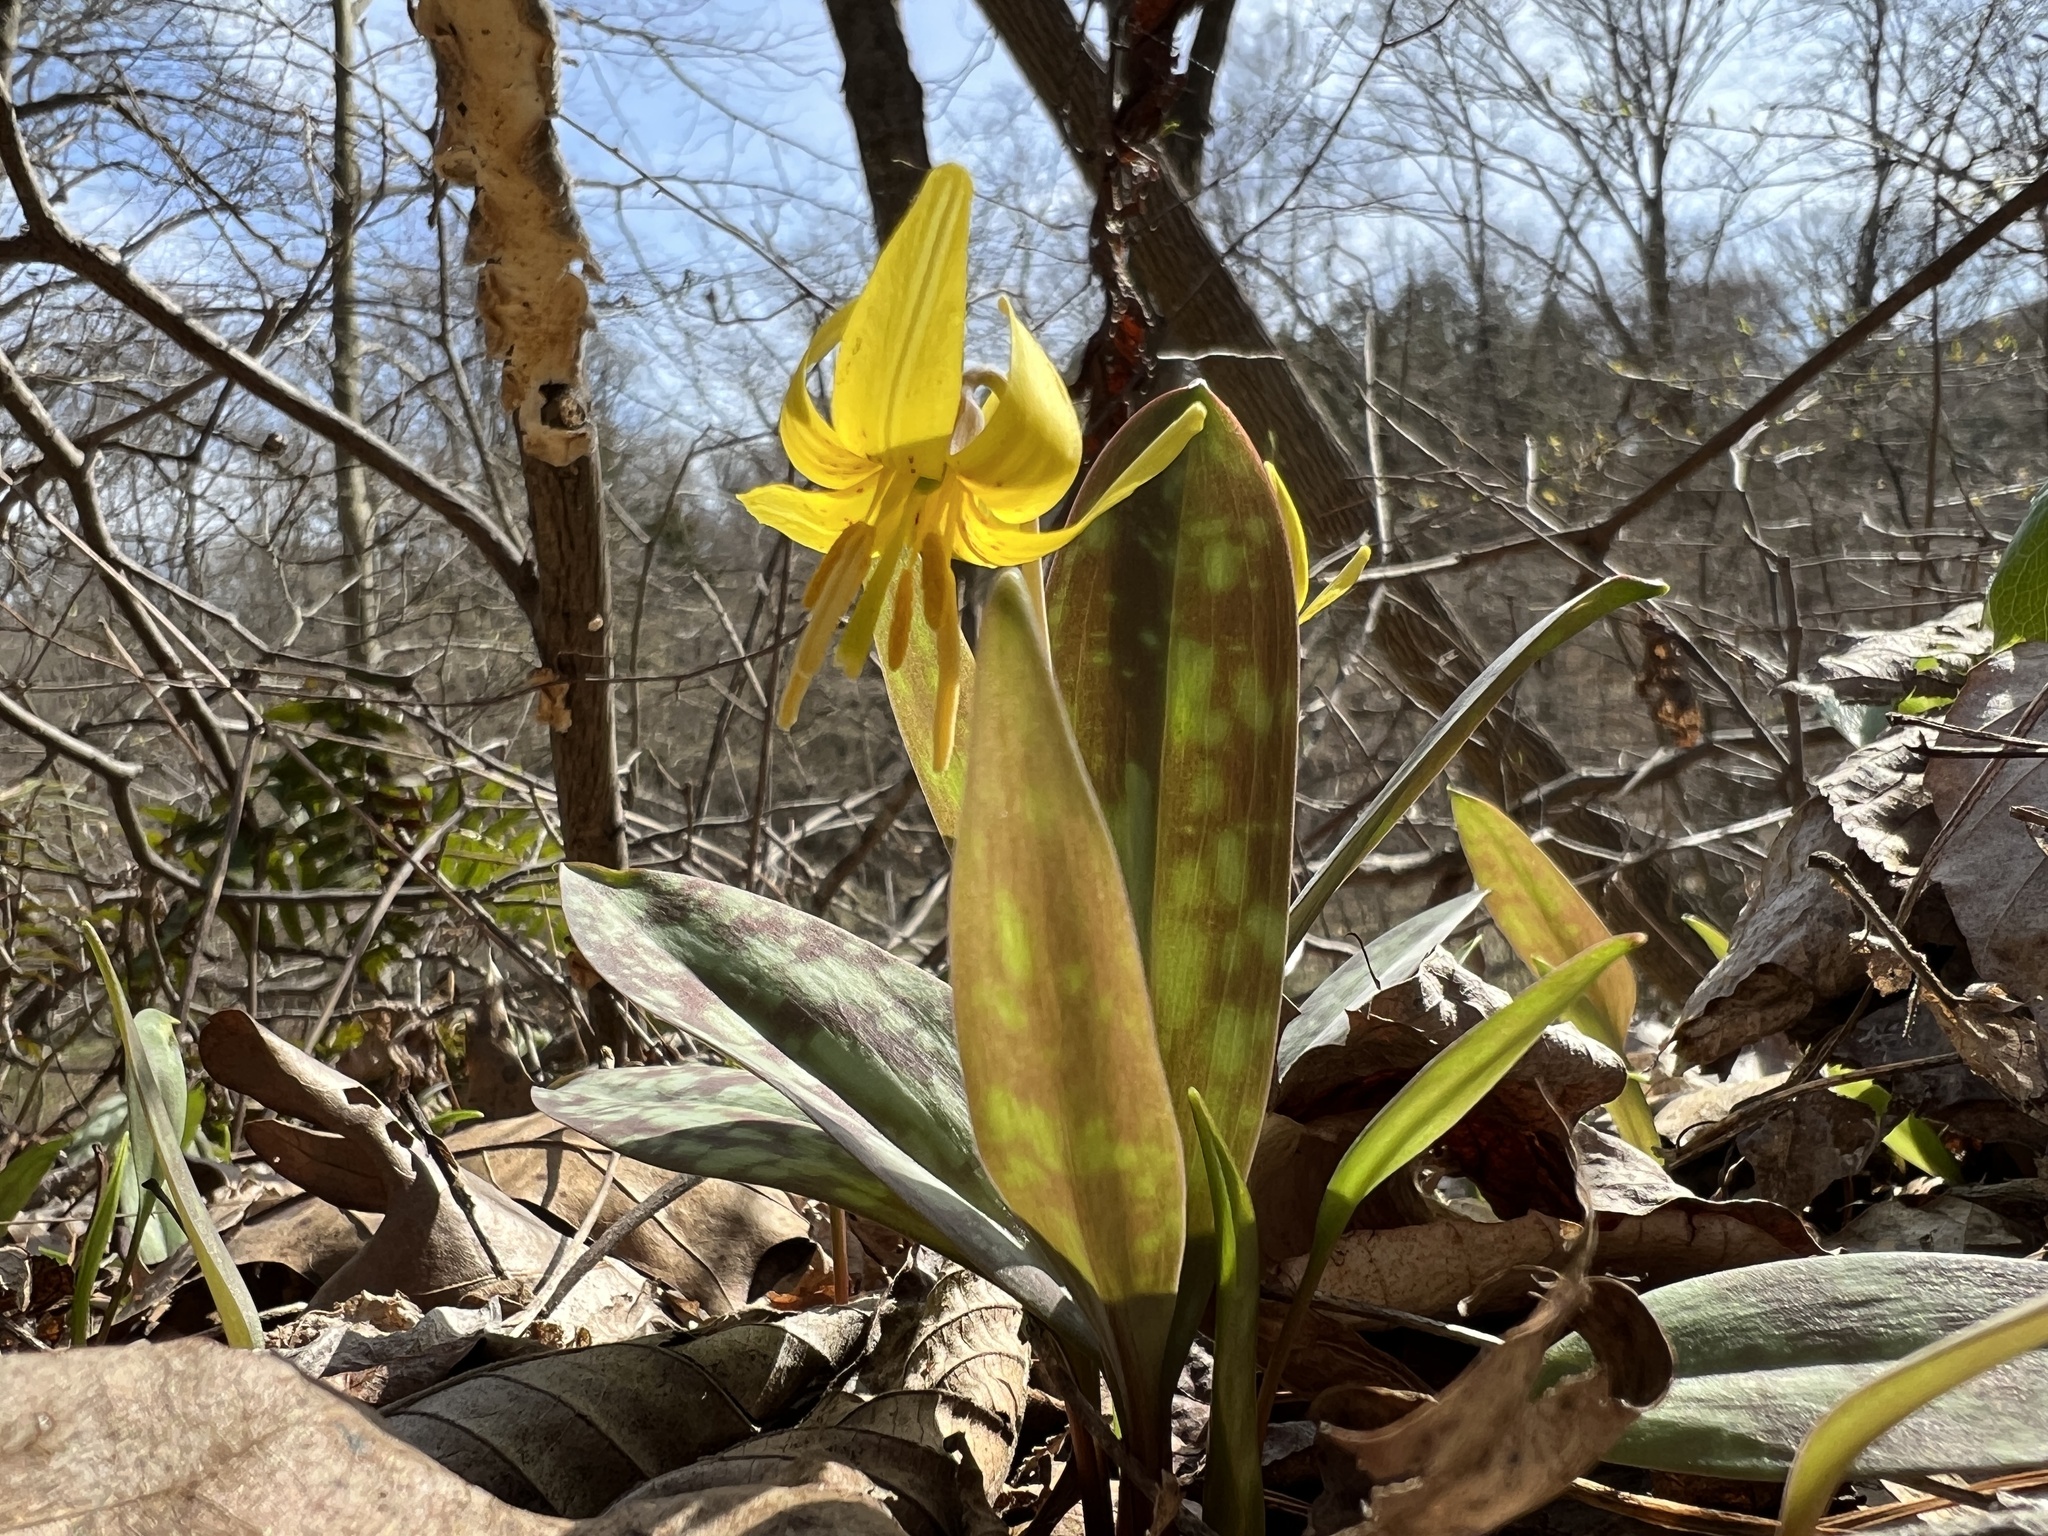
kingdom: Plantae
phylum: Tracheophyta
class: Liliopsida
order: Liliales
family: Liliaceae
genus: Erythronium
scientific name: Erythronium americanum
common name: Yellow adder's-tongue
